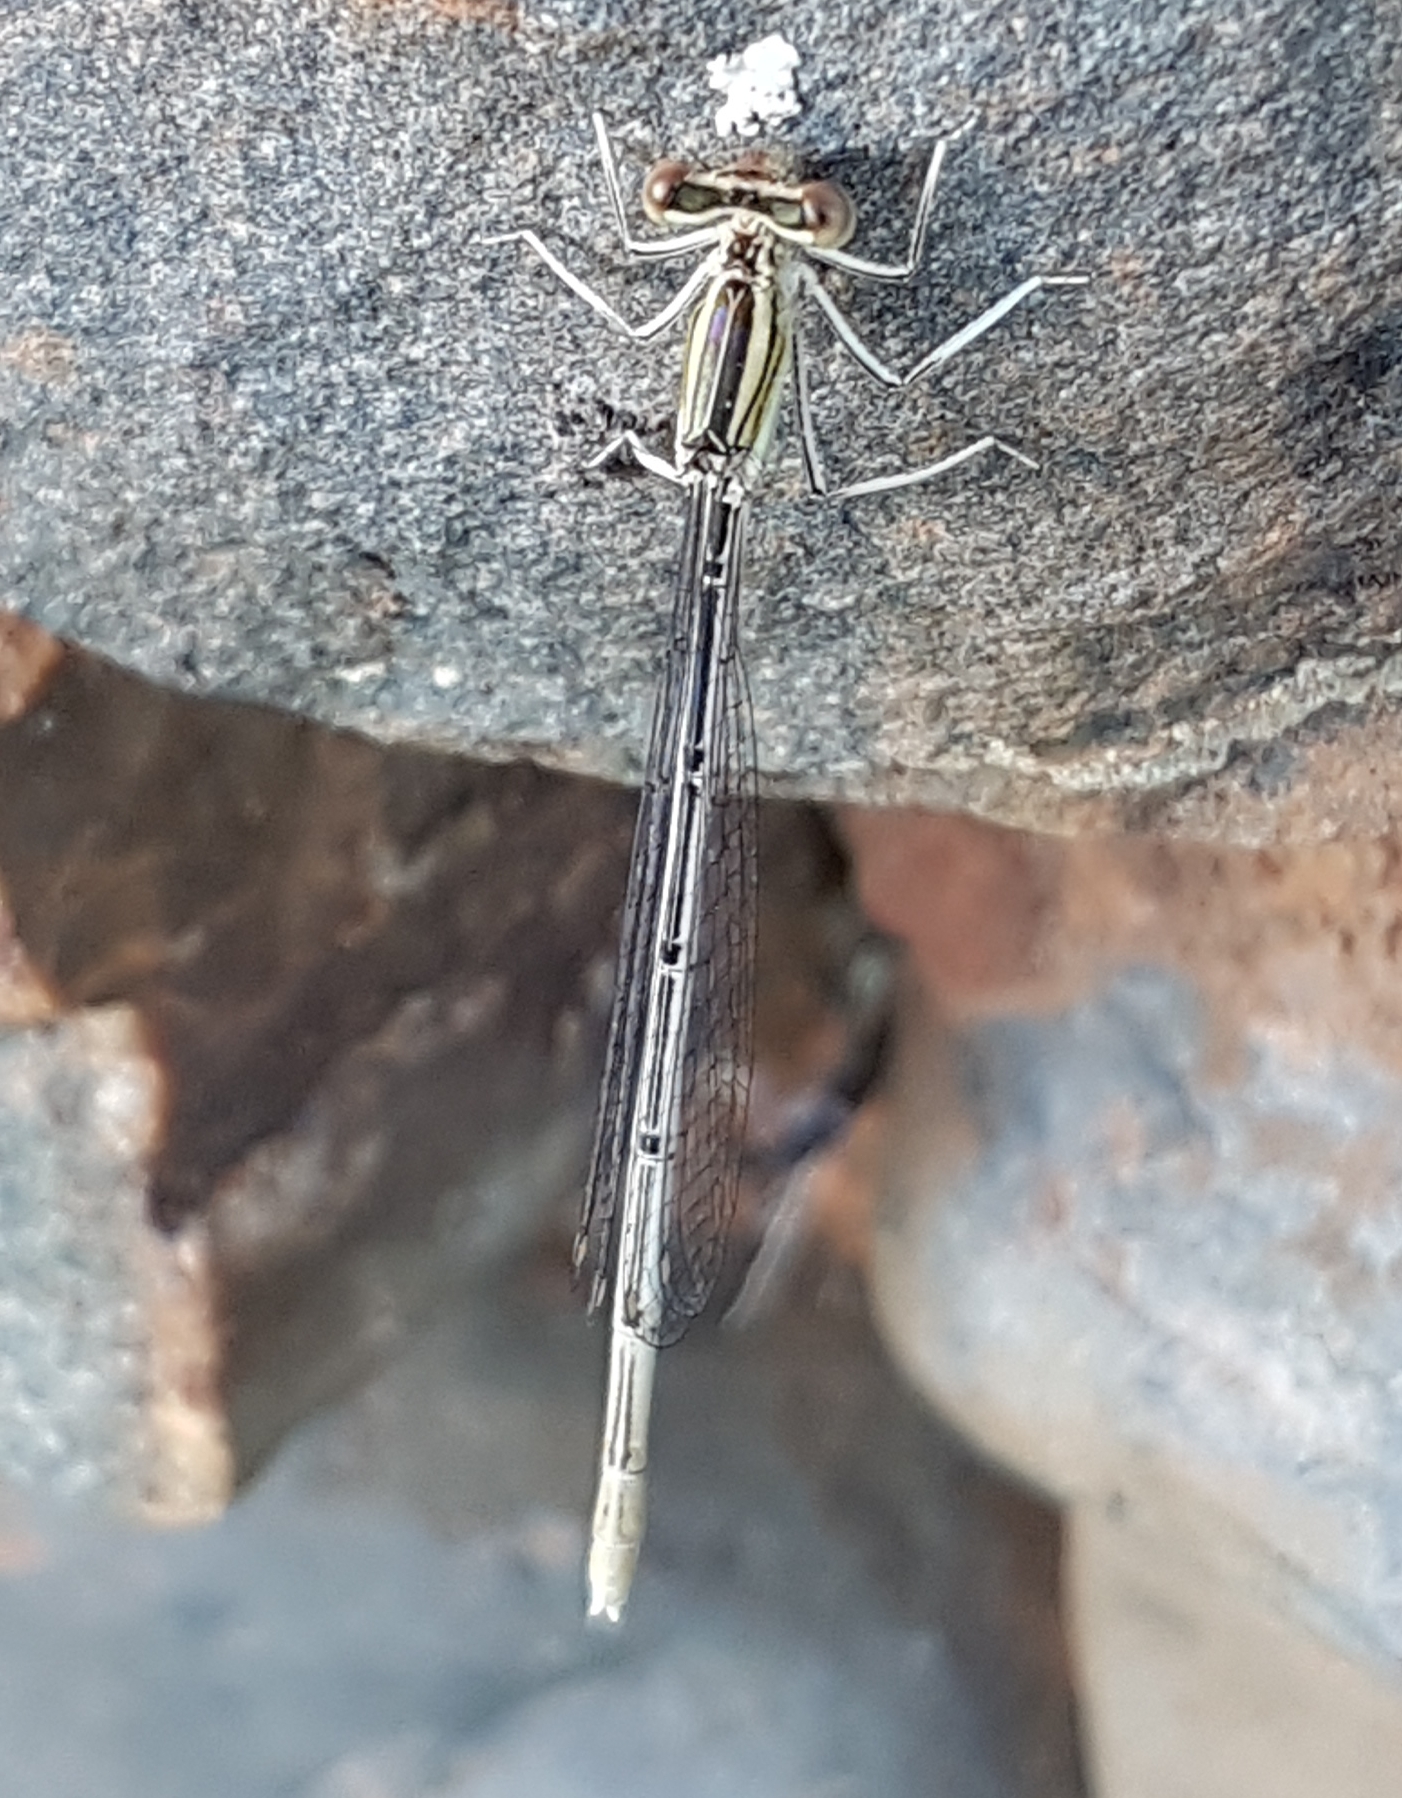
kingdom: Animalia
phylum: Arthropoda
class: Insecta
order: Odonata
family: Platycnemididae
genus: Platycnemis
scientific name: Platycnemis latipes
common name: White featherleg
